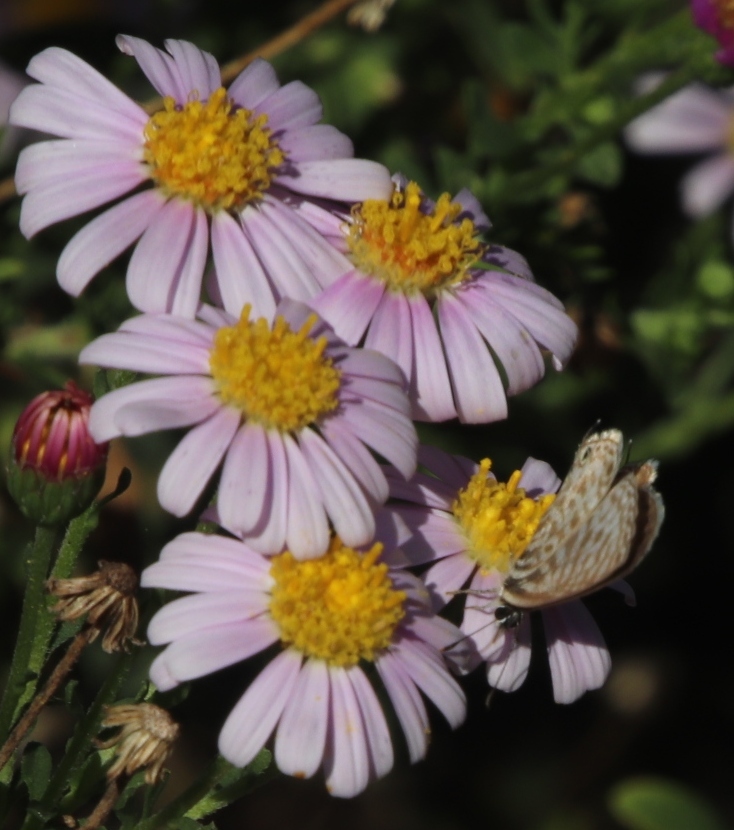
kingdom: Animalia
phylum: Arthropoda
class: Insecta
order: Lepidoptera
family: Lycaenidae
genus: Leptotes
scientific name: Leptotes
